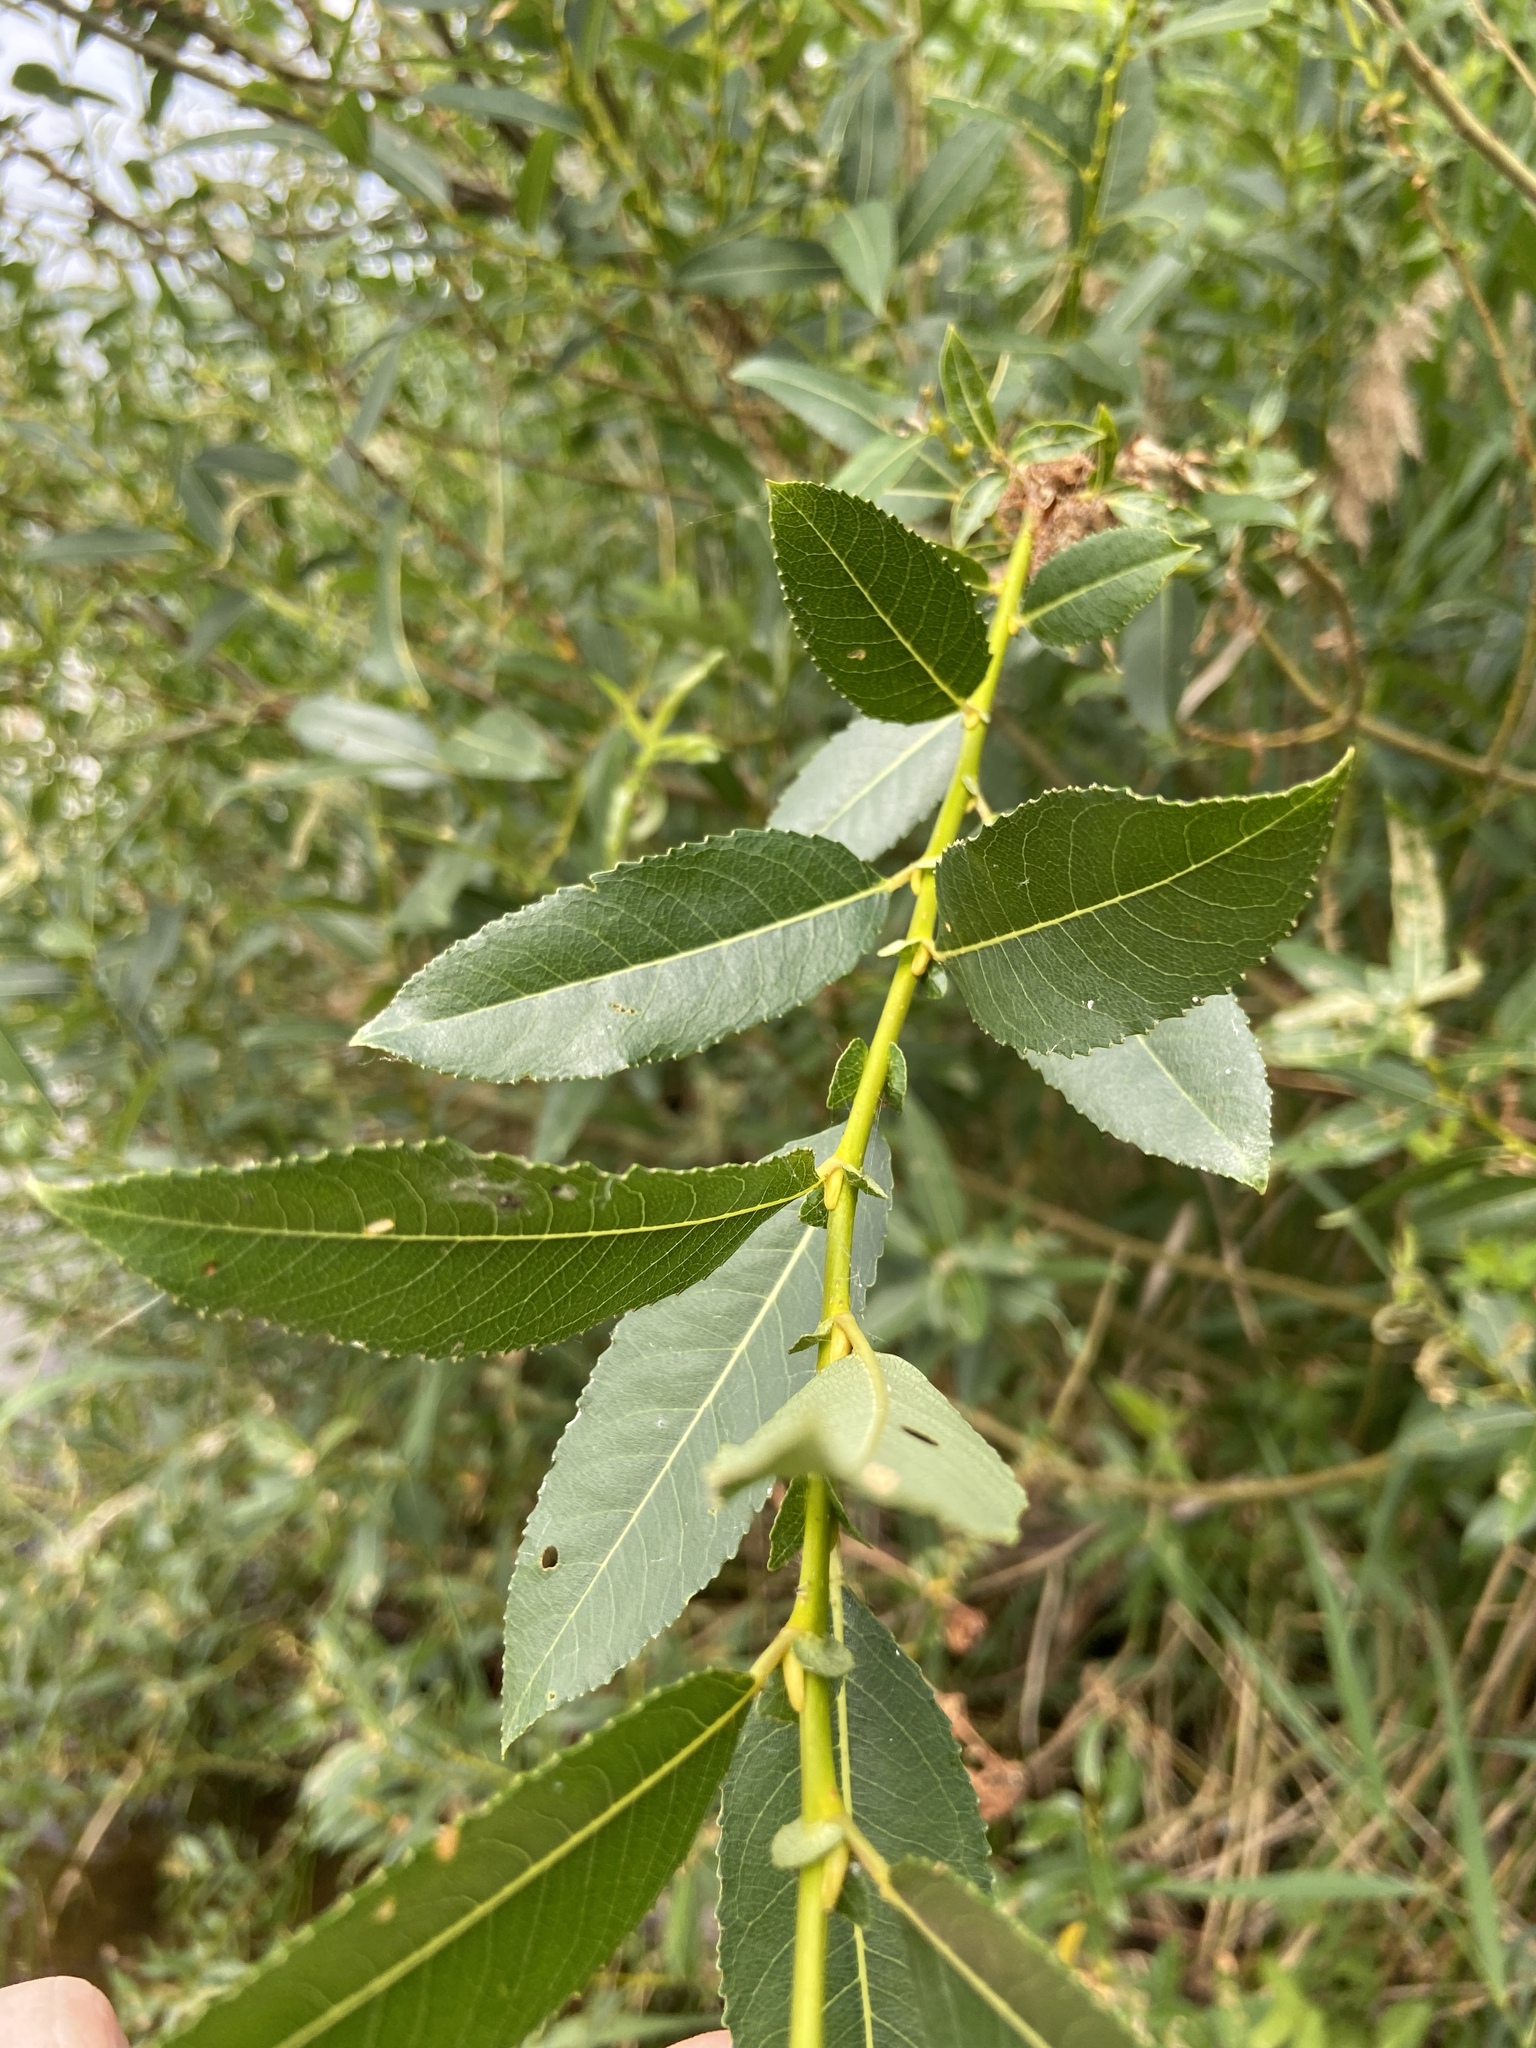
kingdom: Plantae
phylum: Tracheophyta
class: Magnoliopsida
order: Malpighiales
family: Salicaceae
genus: Salix
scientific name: Salix triandra
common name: Almond willow
